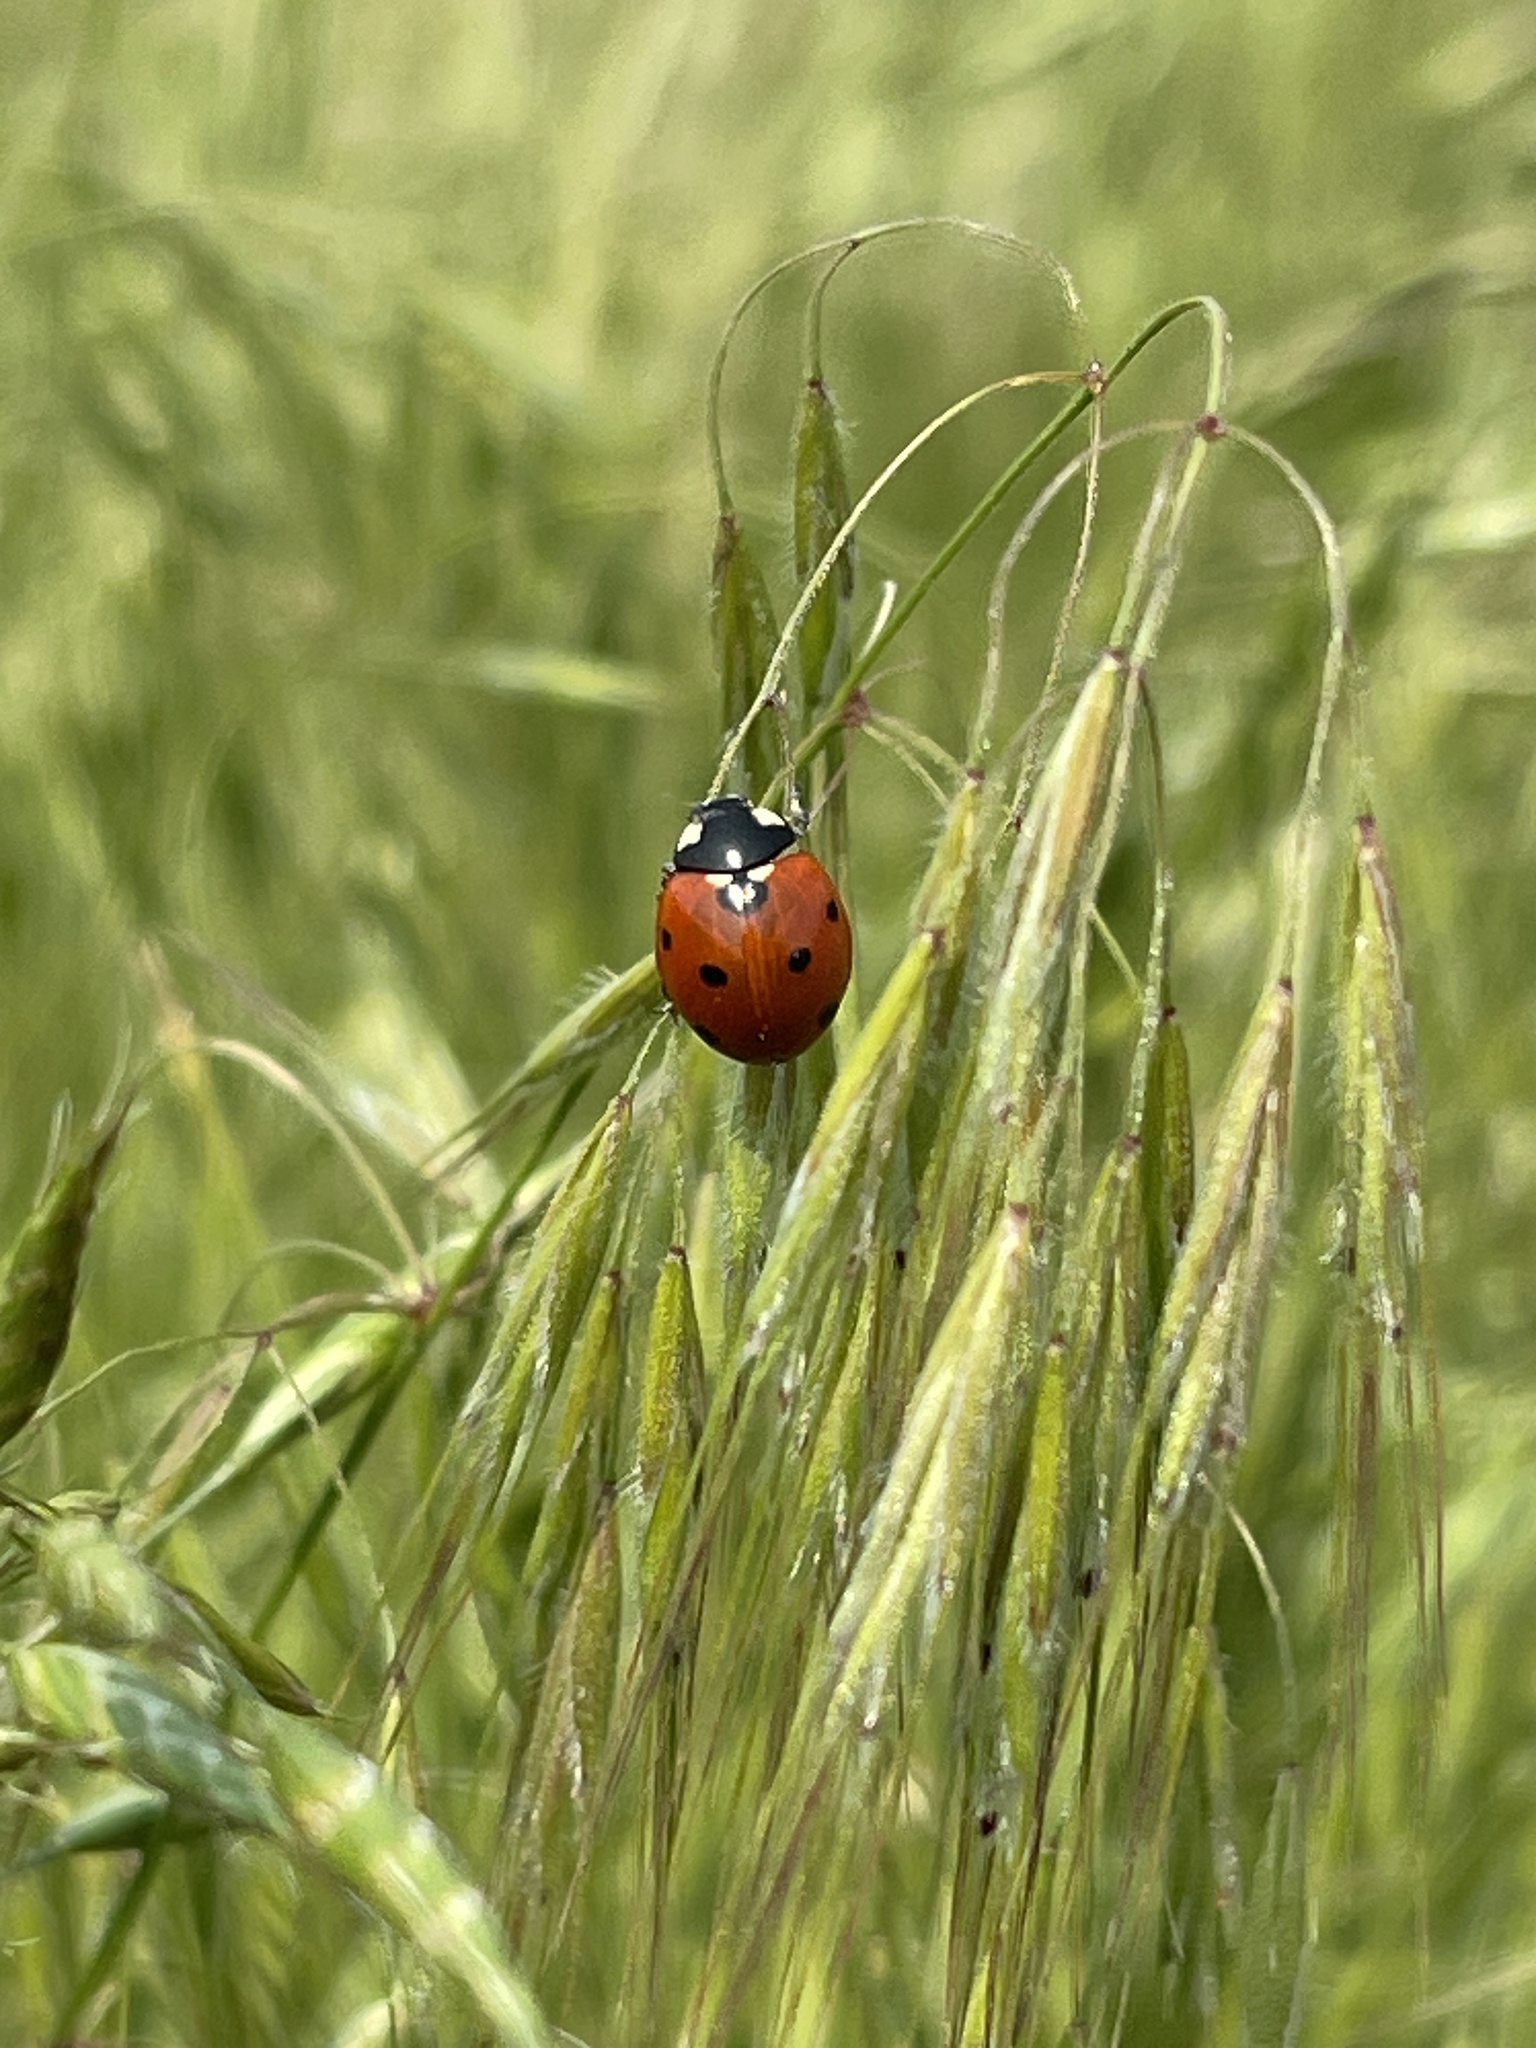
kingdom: Animalia
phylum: Arthropoda
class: Insecta
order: Coleoptera
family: Coccinellidae
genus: Coccinella
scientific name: Coccinella septempunctata
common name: Sevenspotted lady beetle
